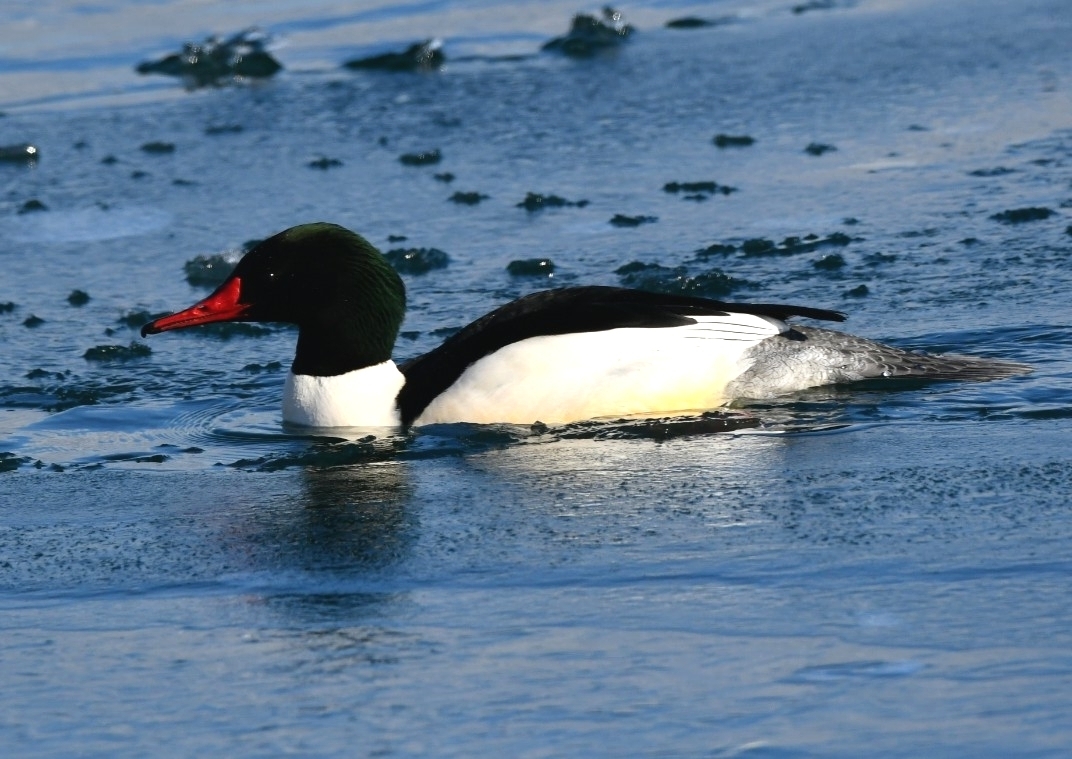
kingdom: Animalia
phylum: Chordata
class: Aves
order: Anseriformes
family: Anatidae
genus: Mergus
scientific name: Mergus merganser
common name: Common merganser
